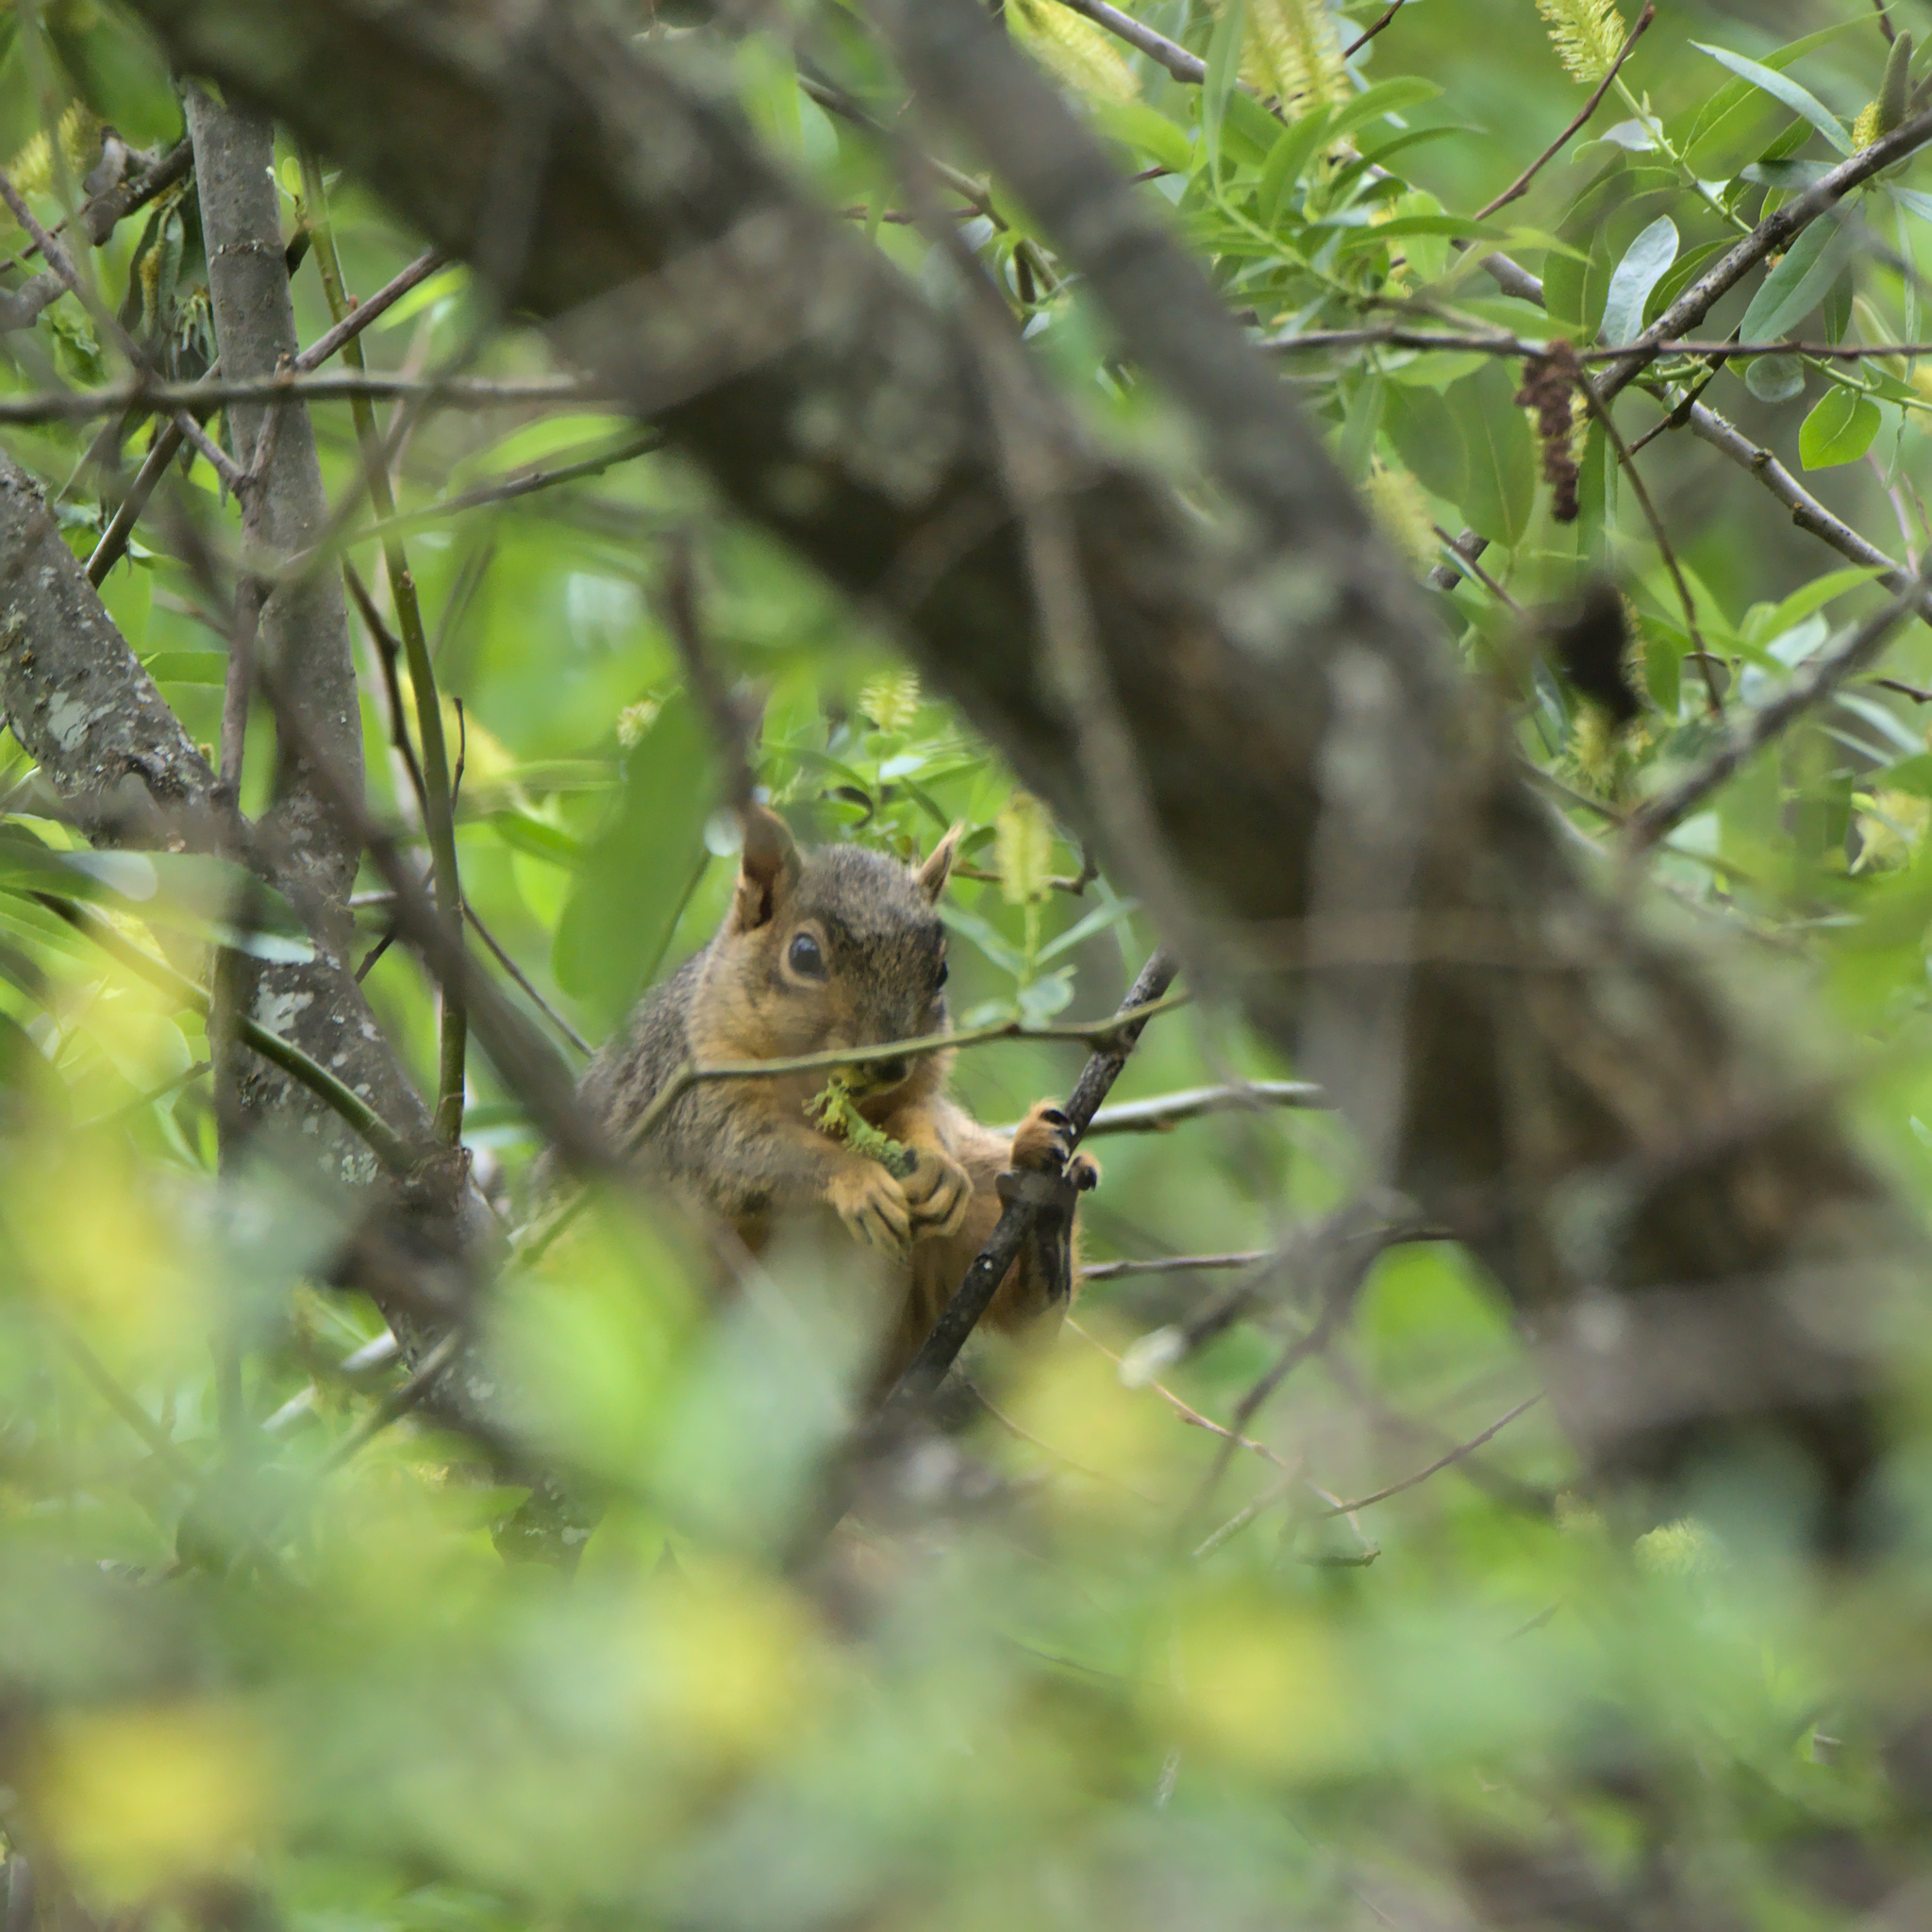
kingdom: Animalia
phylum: Chordata
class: Mammalia
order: Rodentia
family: Sciuridae
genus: Sciurus
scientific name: Sciurus niger
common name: Fox squirrel
